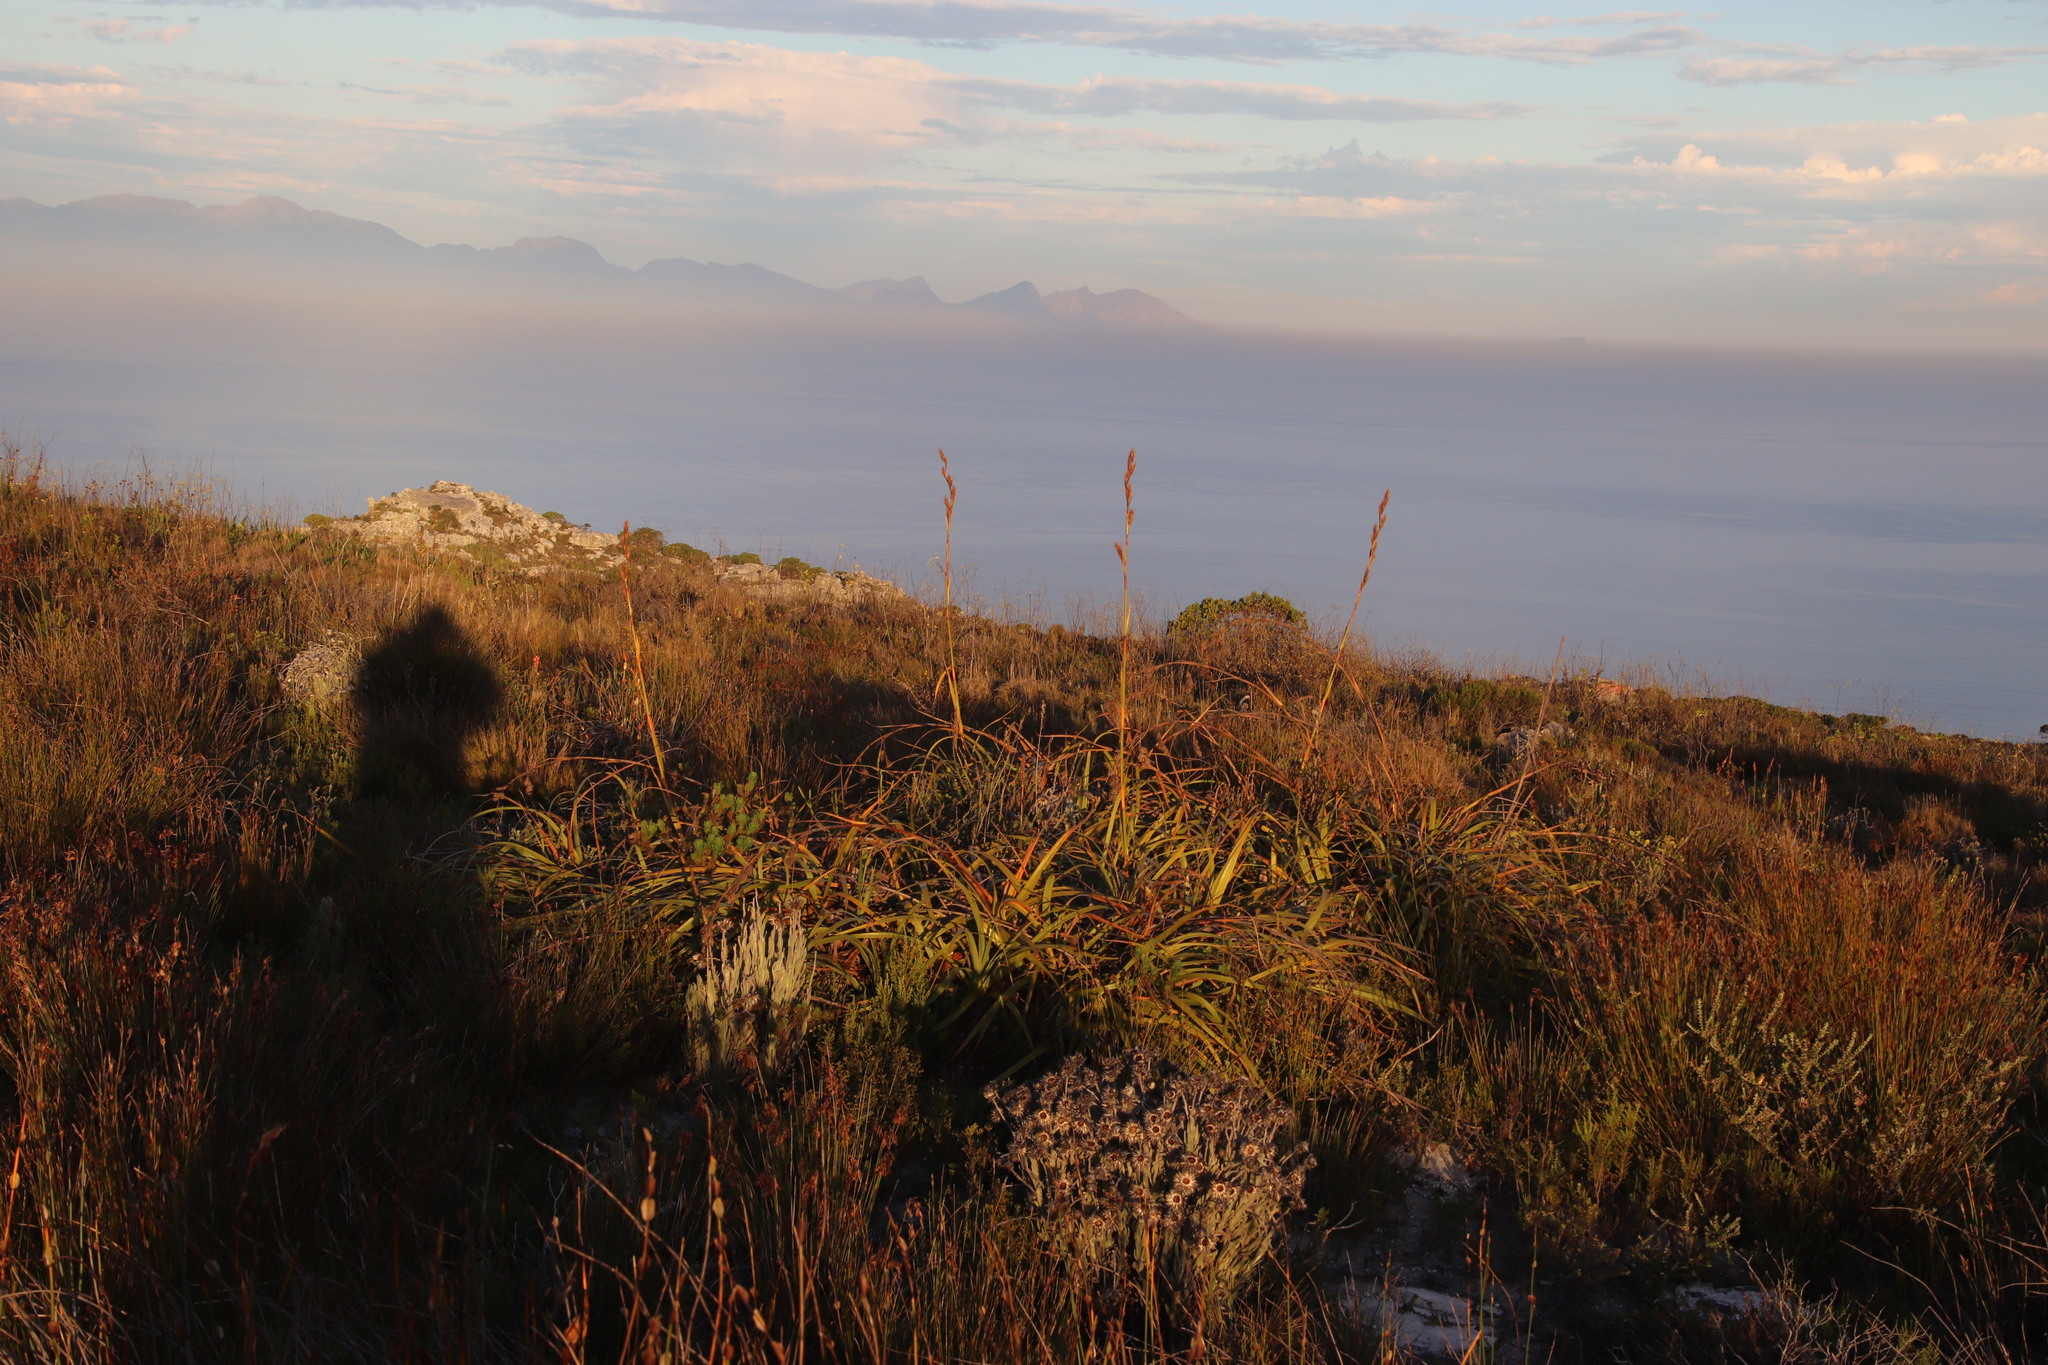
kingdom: Plantae
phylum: Tracheophyta
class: Liliopsida
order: Poales
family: Cyperaceae
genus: Tetraria
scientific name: Tetraria thermalis
